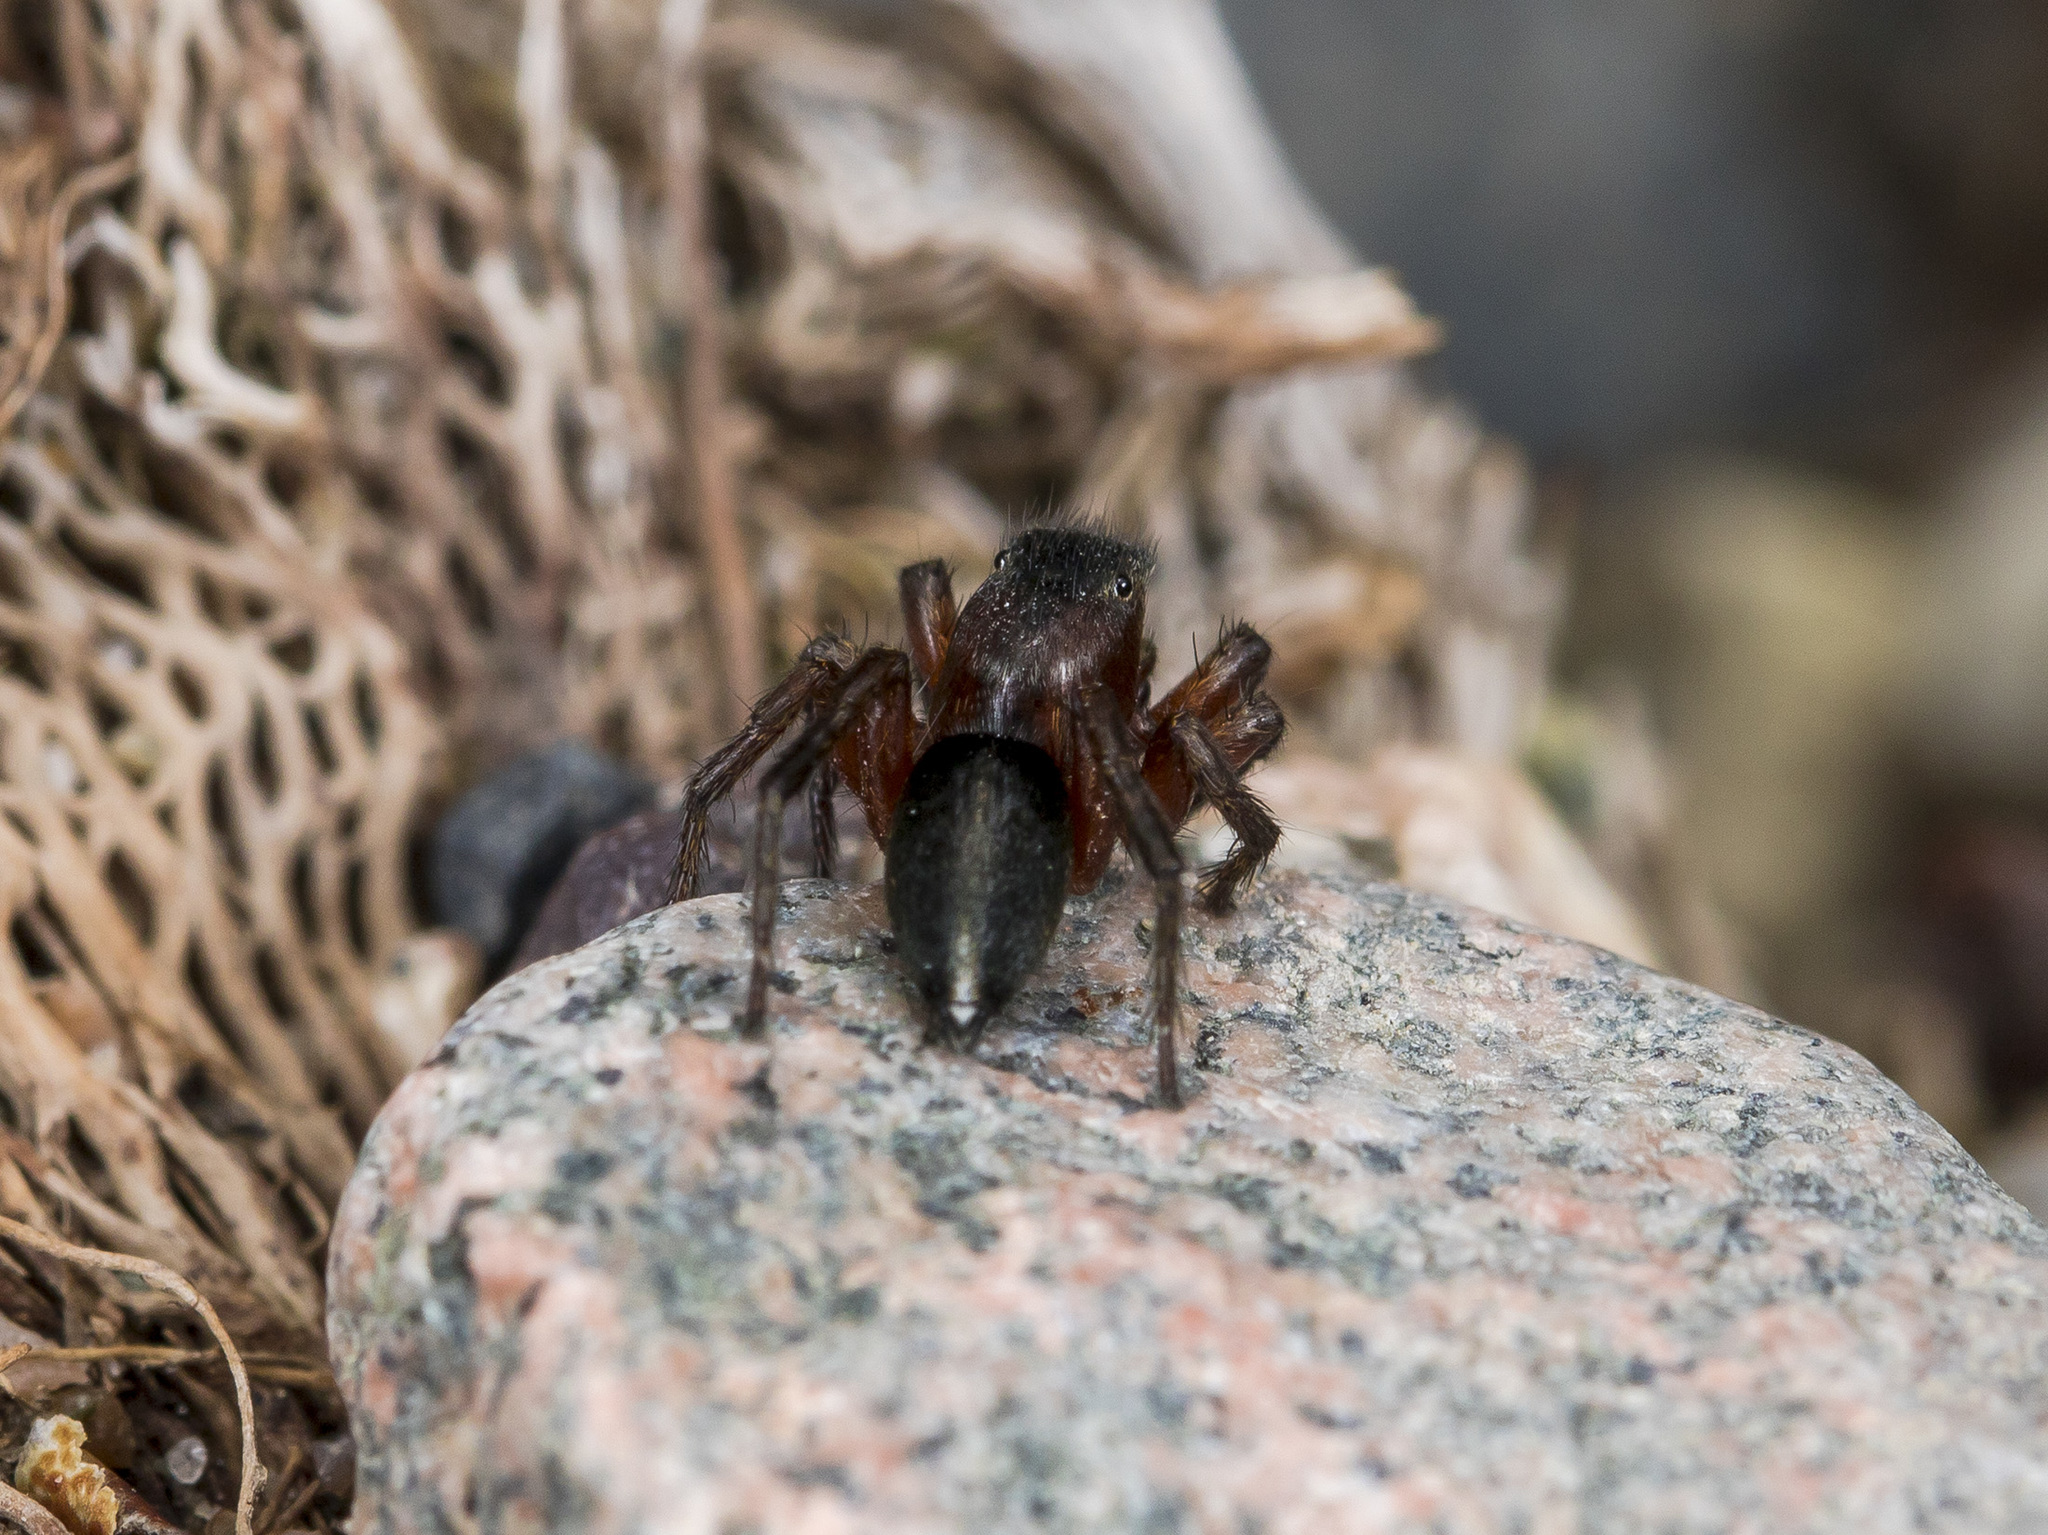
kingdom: Animalia
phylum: Arthropoda
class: Arachnida
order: Araneae
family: Salticidae
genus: Phlegra
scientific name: Phlegra fasciata
